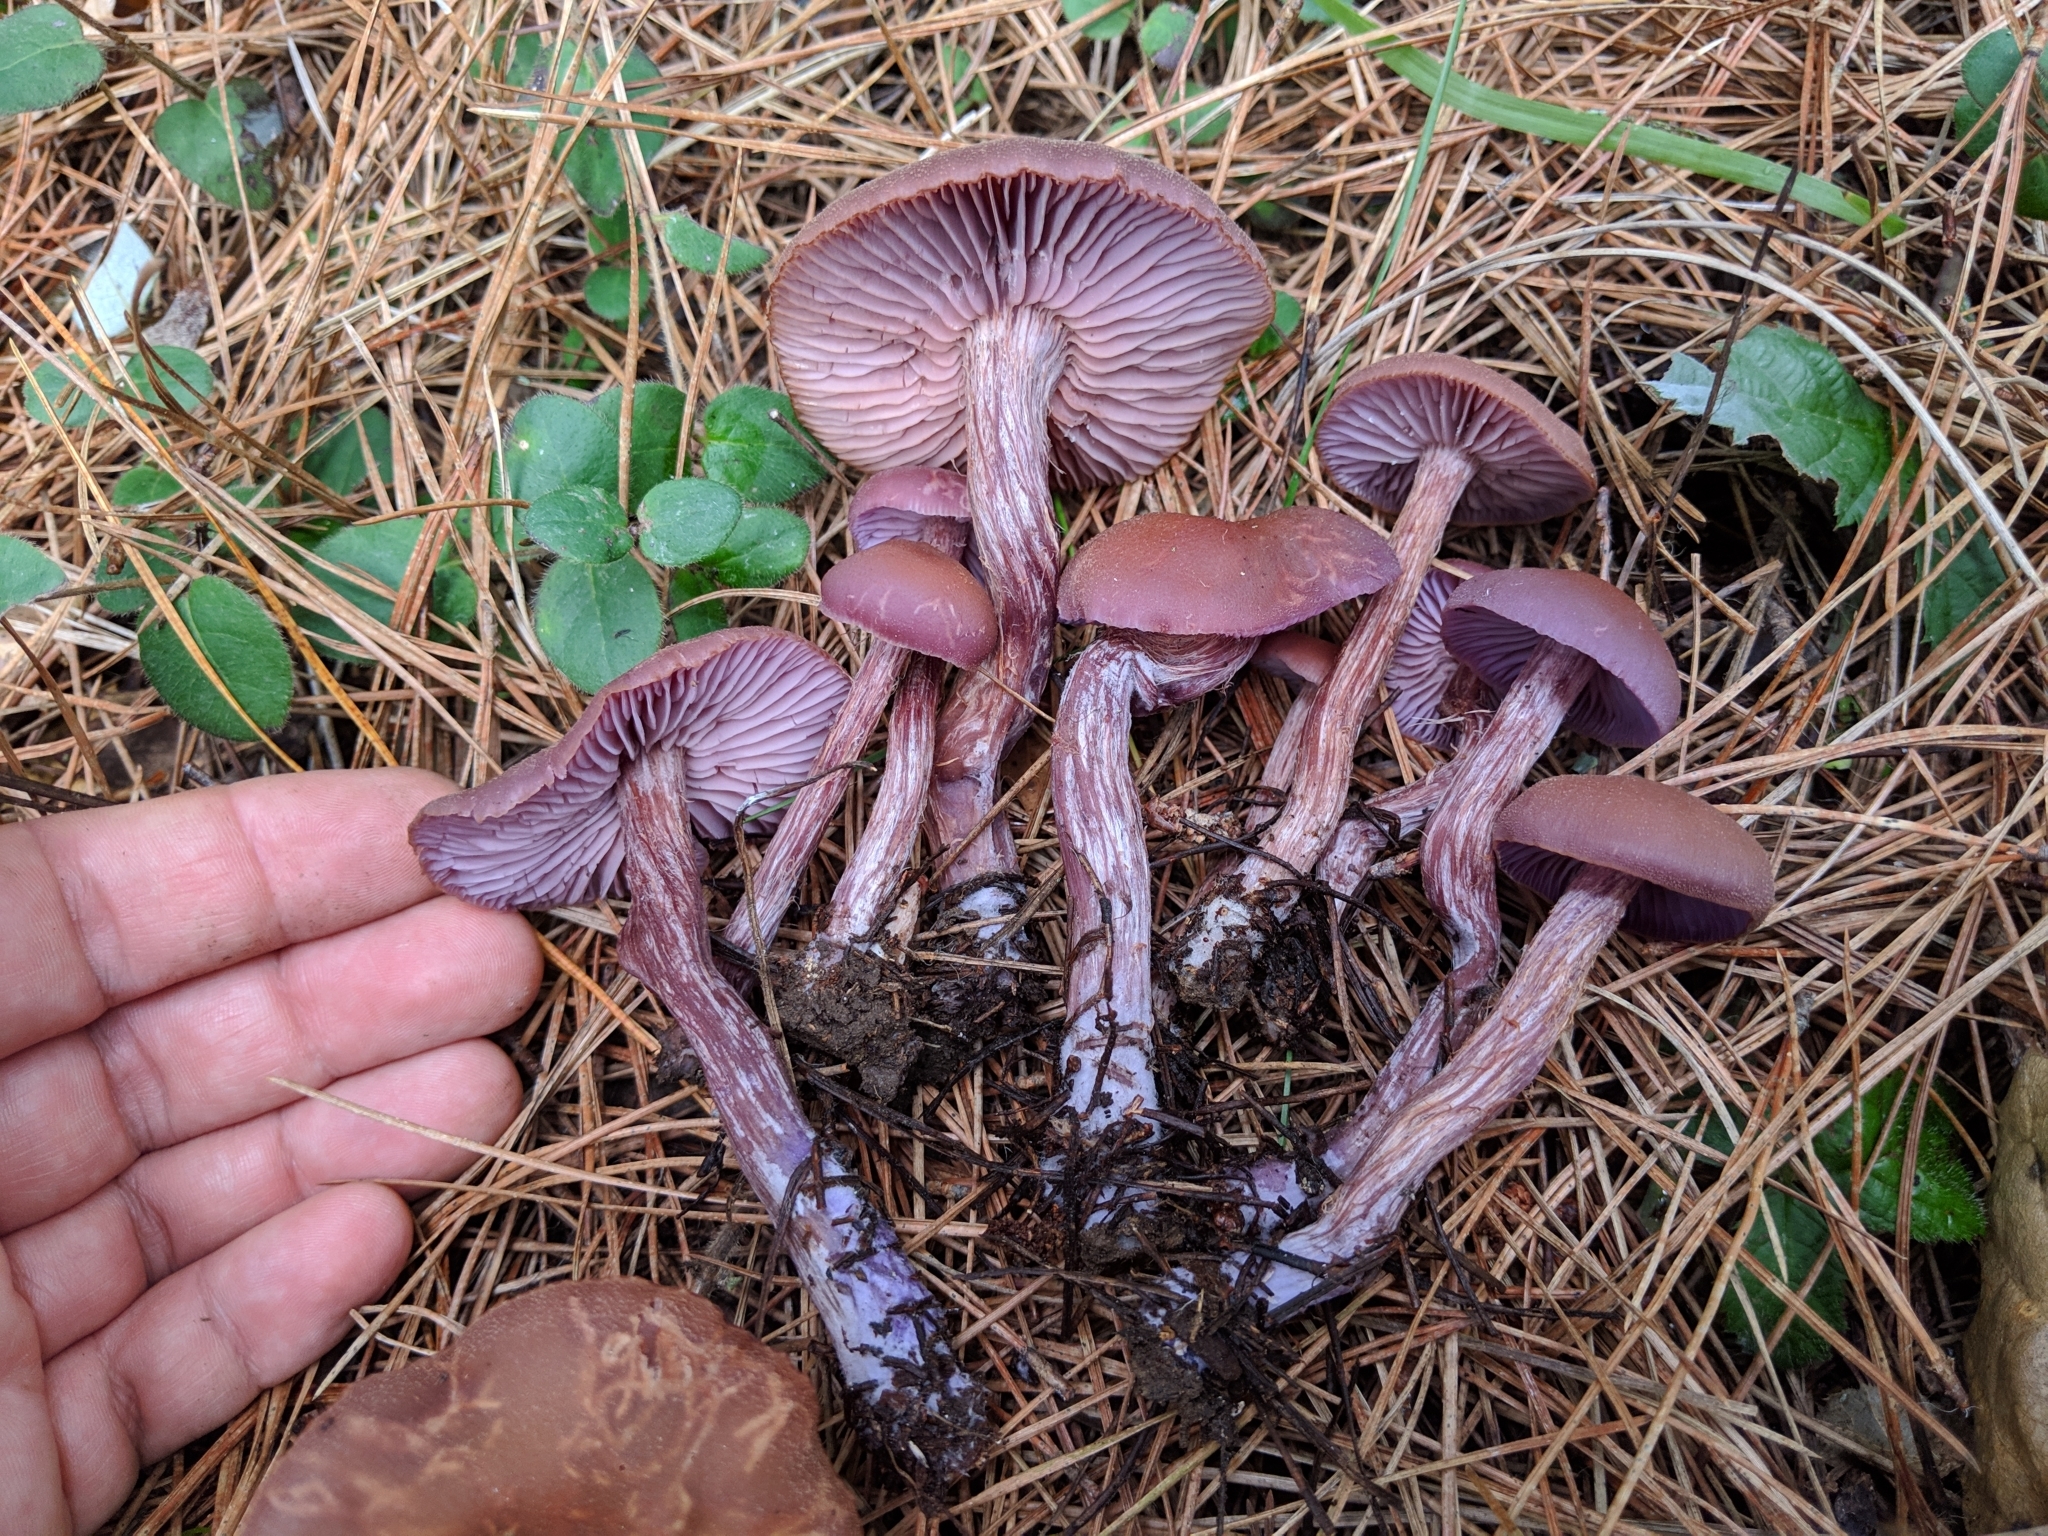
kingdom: Fungi
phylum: Basidiomycota
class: Agaricomycetes
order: Agaricales
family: Hydnangiaceae
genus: Laccaria
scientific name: Laccaria amethysteo-occidentalis
